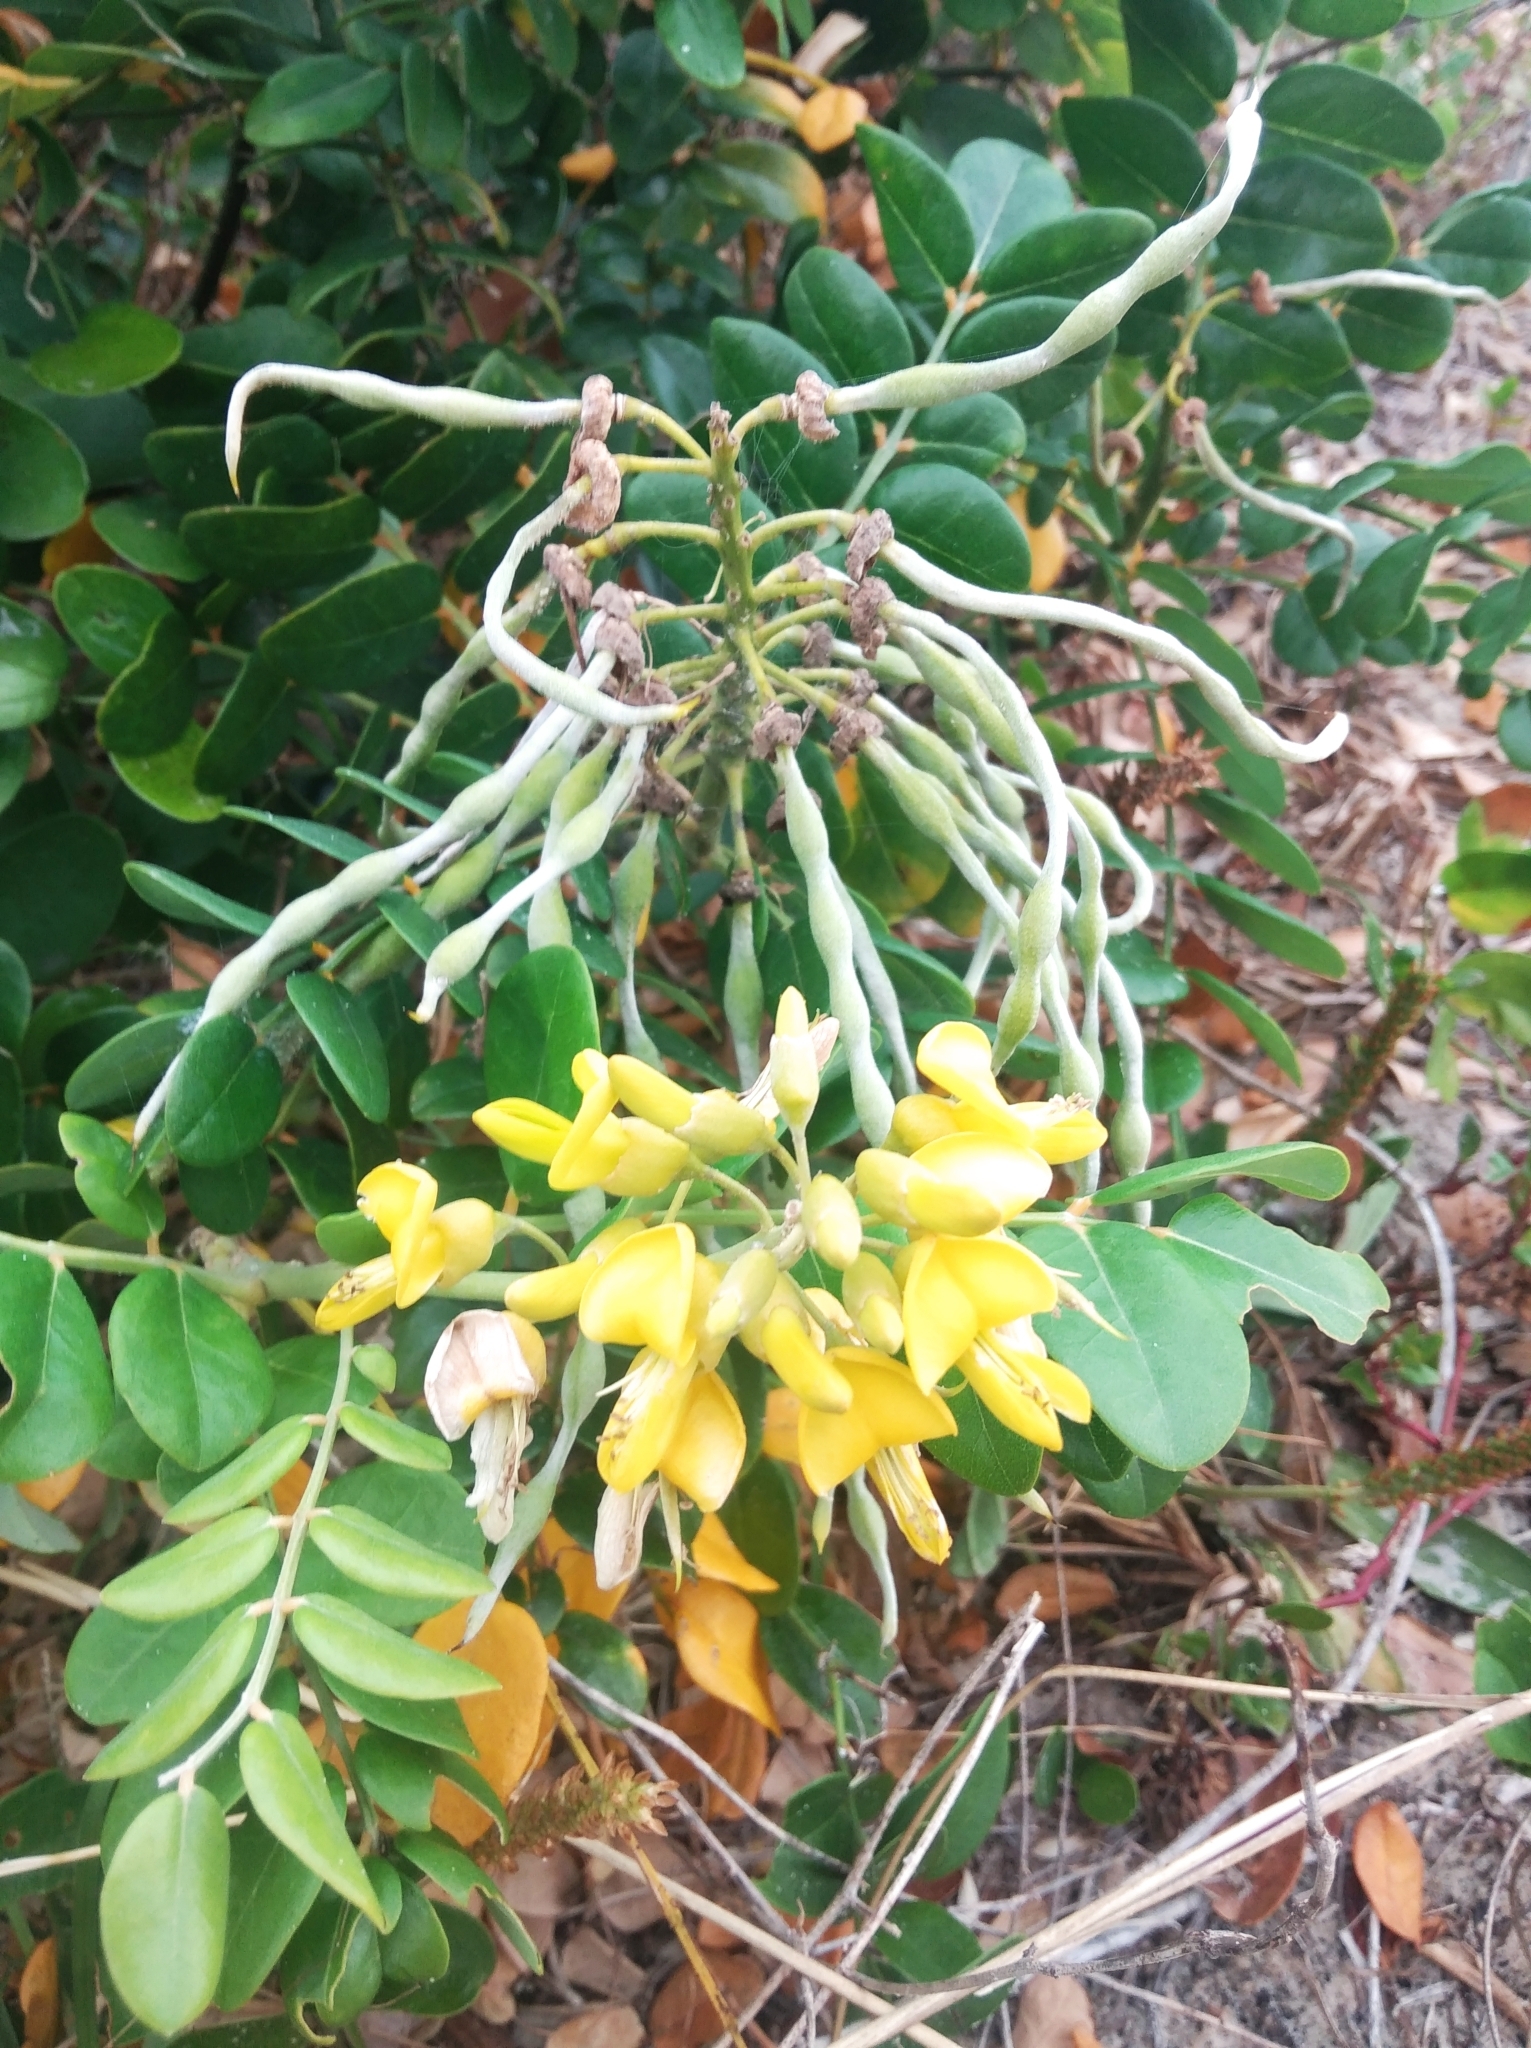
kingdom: Plantae
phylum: Tracheophyta
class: Magnoliopsida
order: Fabales
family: Fabaceae
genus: Sophora
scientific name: Sophora tomentosa
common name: Yellow necklacepod
